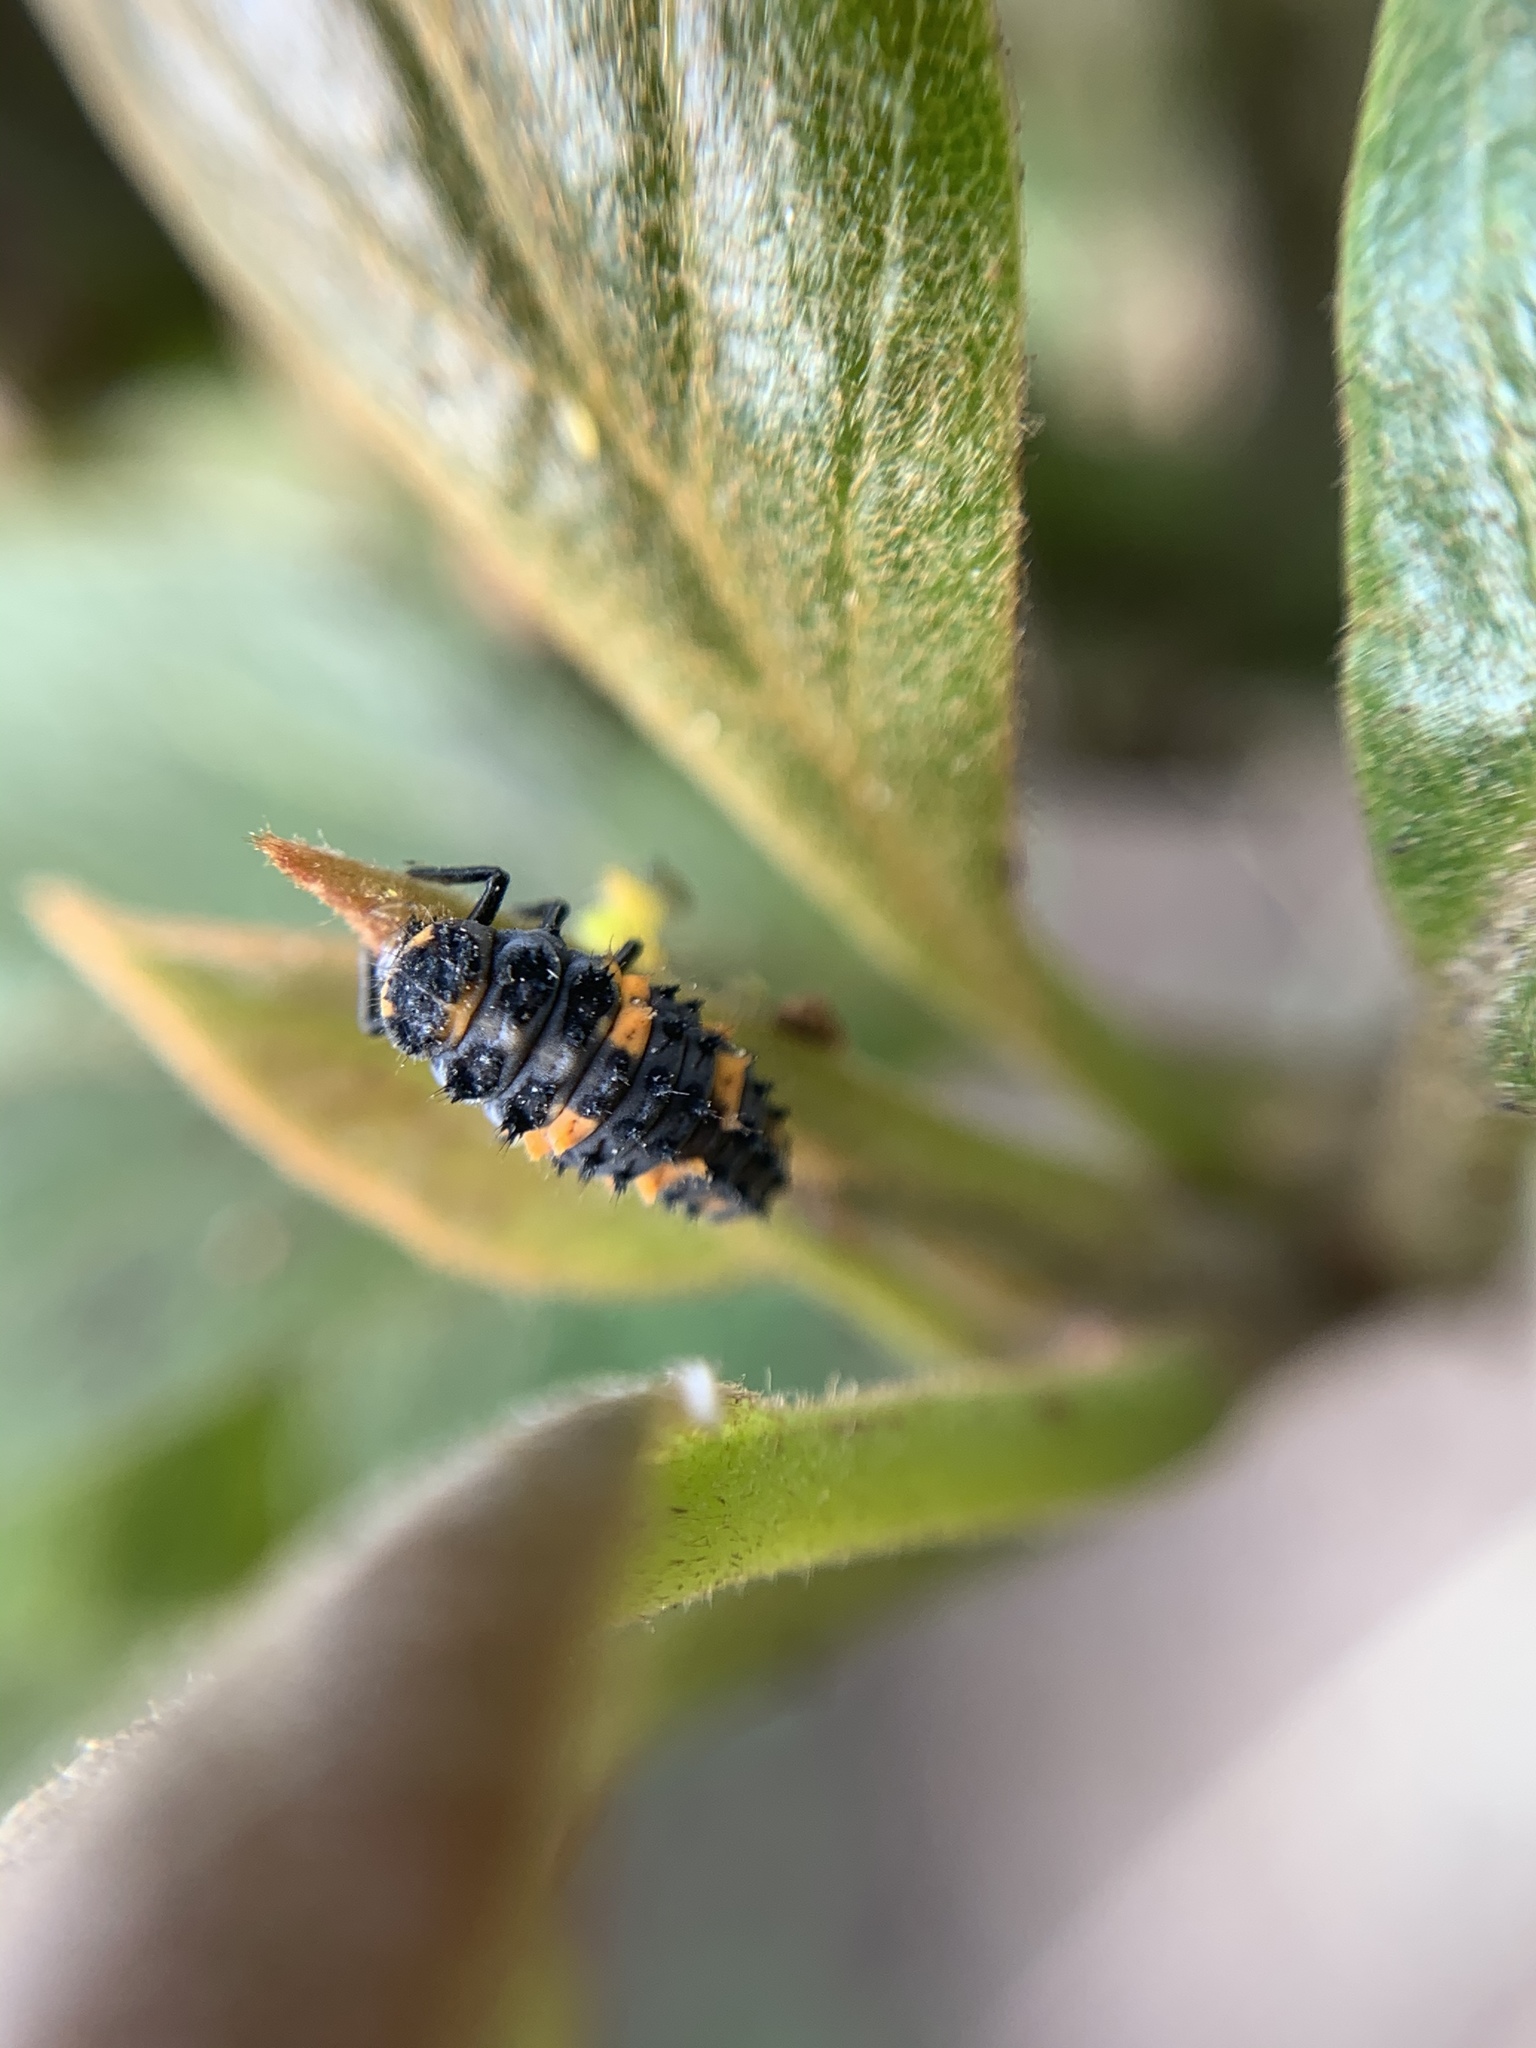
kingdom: Animalia
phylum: Arthropoda
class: Insecta
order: Coleoptera
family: Coccinellidae
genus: Hippodamia
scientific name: Hippodamia convergens
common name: Convergent lady beetle
